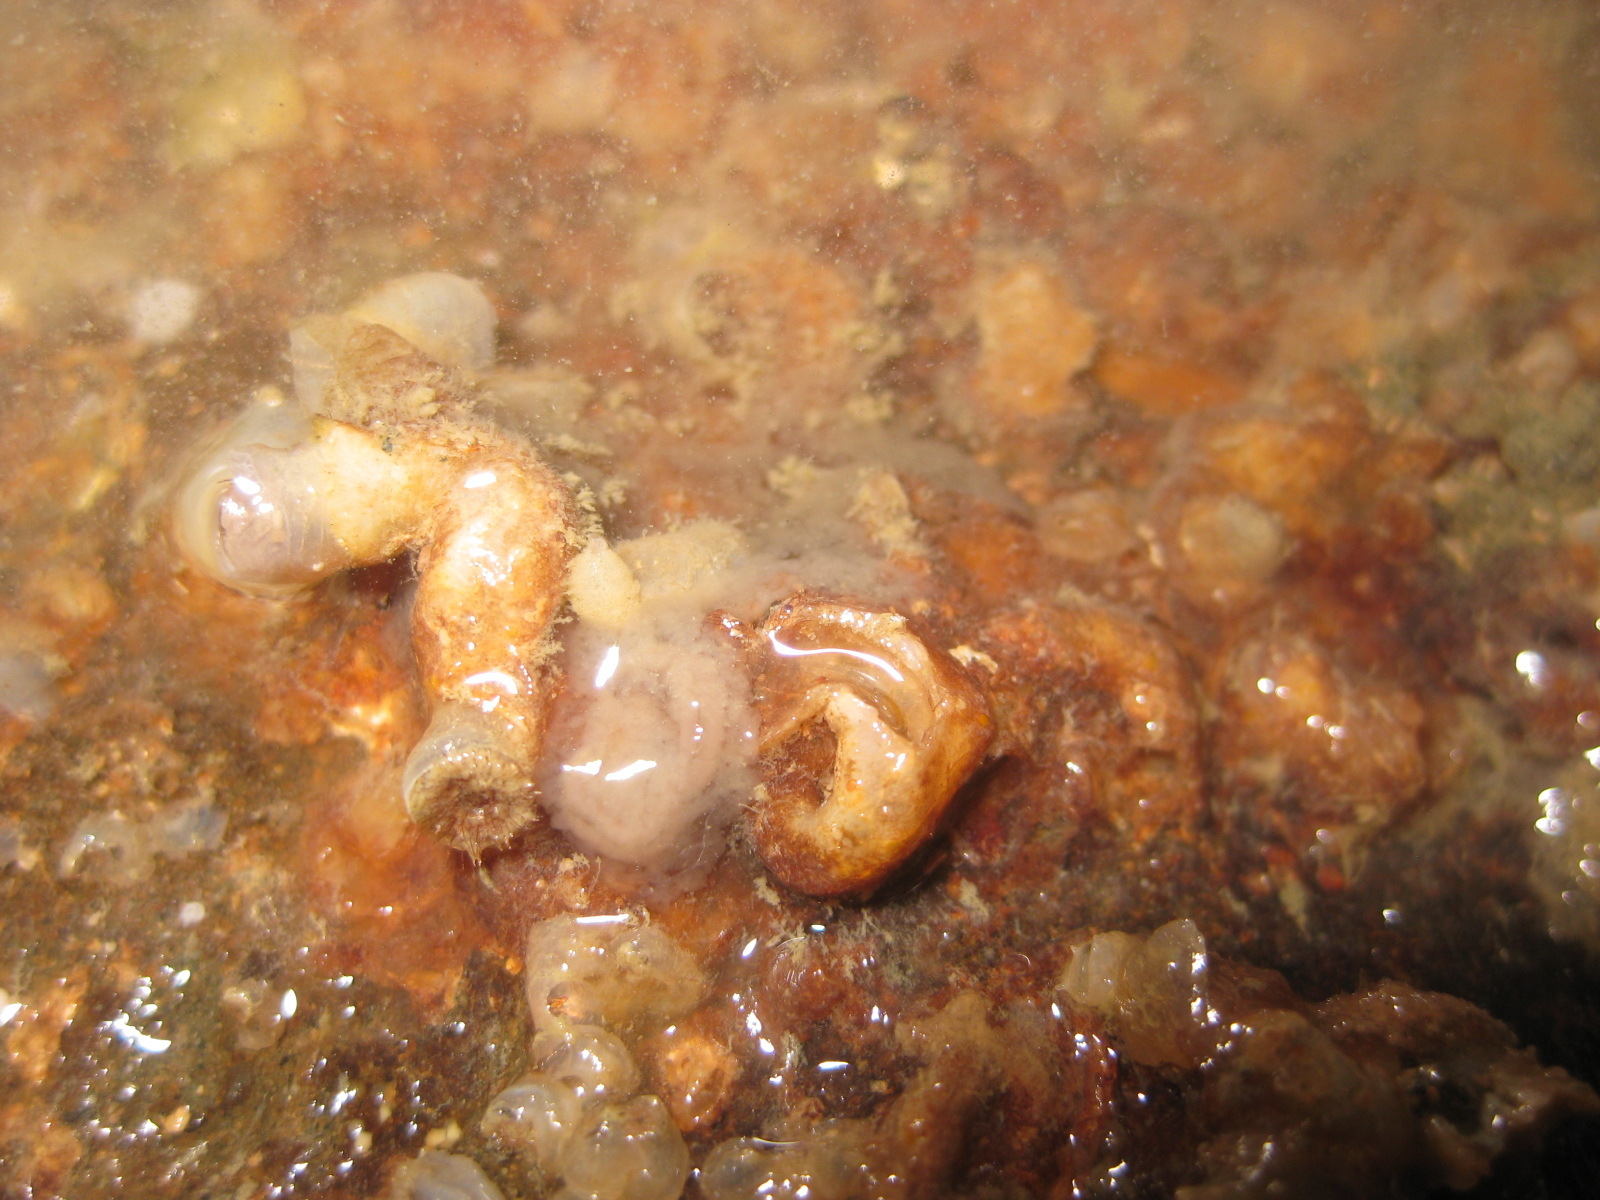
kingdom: Animalia
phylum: Mollusca
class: Gastropoda
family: Siliquariidae
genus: Stephopoma
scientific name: Stephopoma roseum
